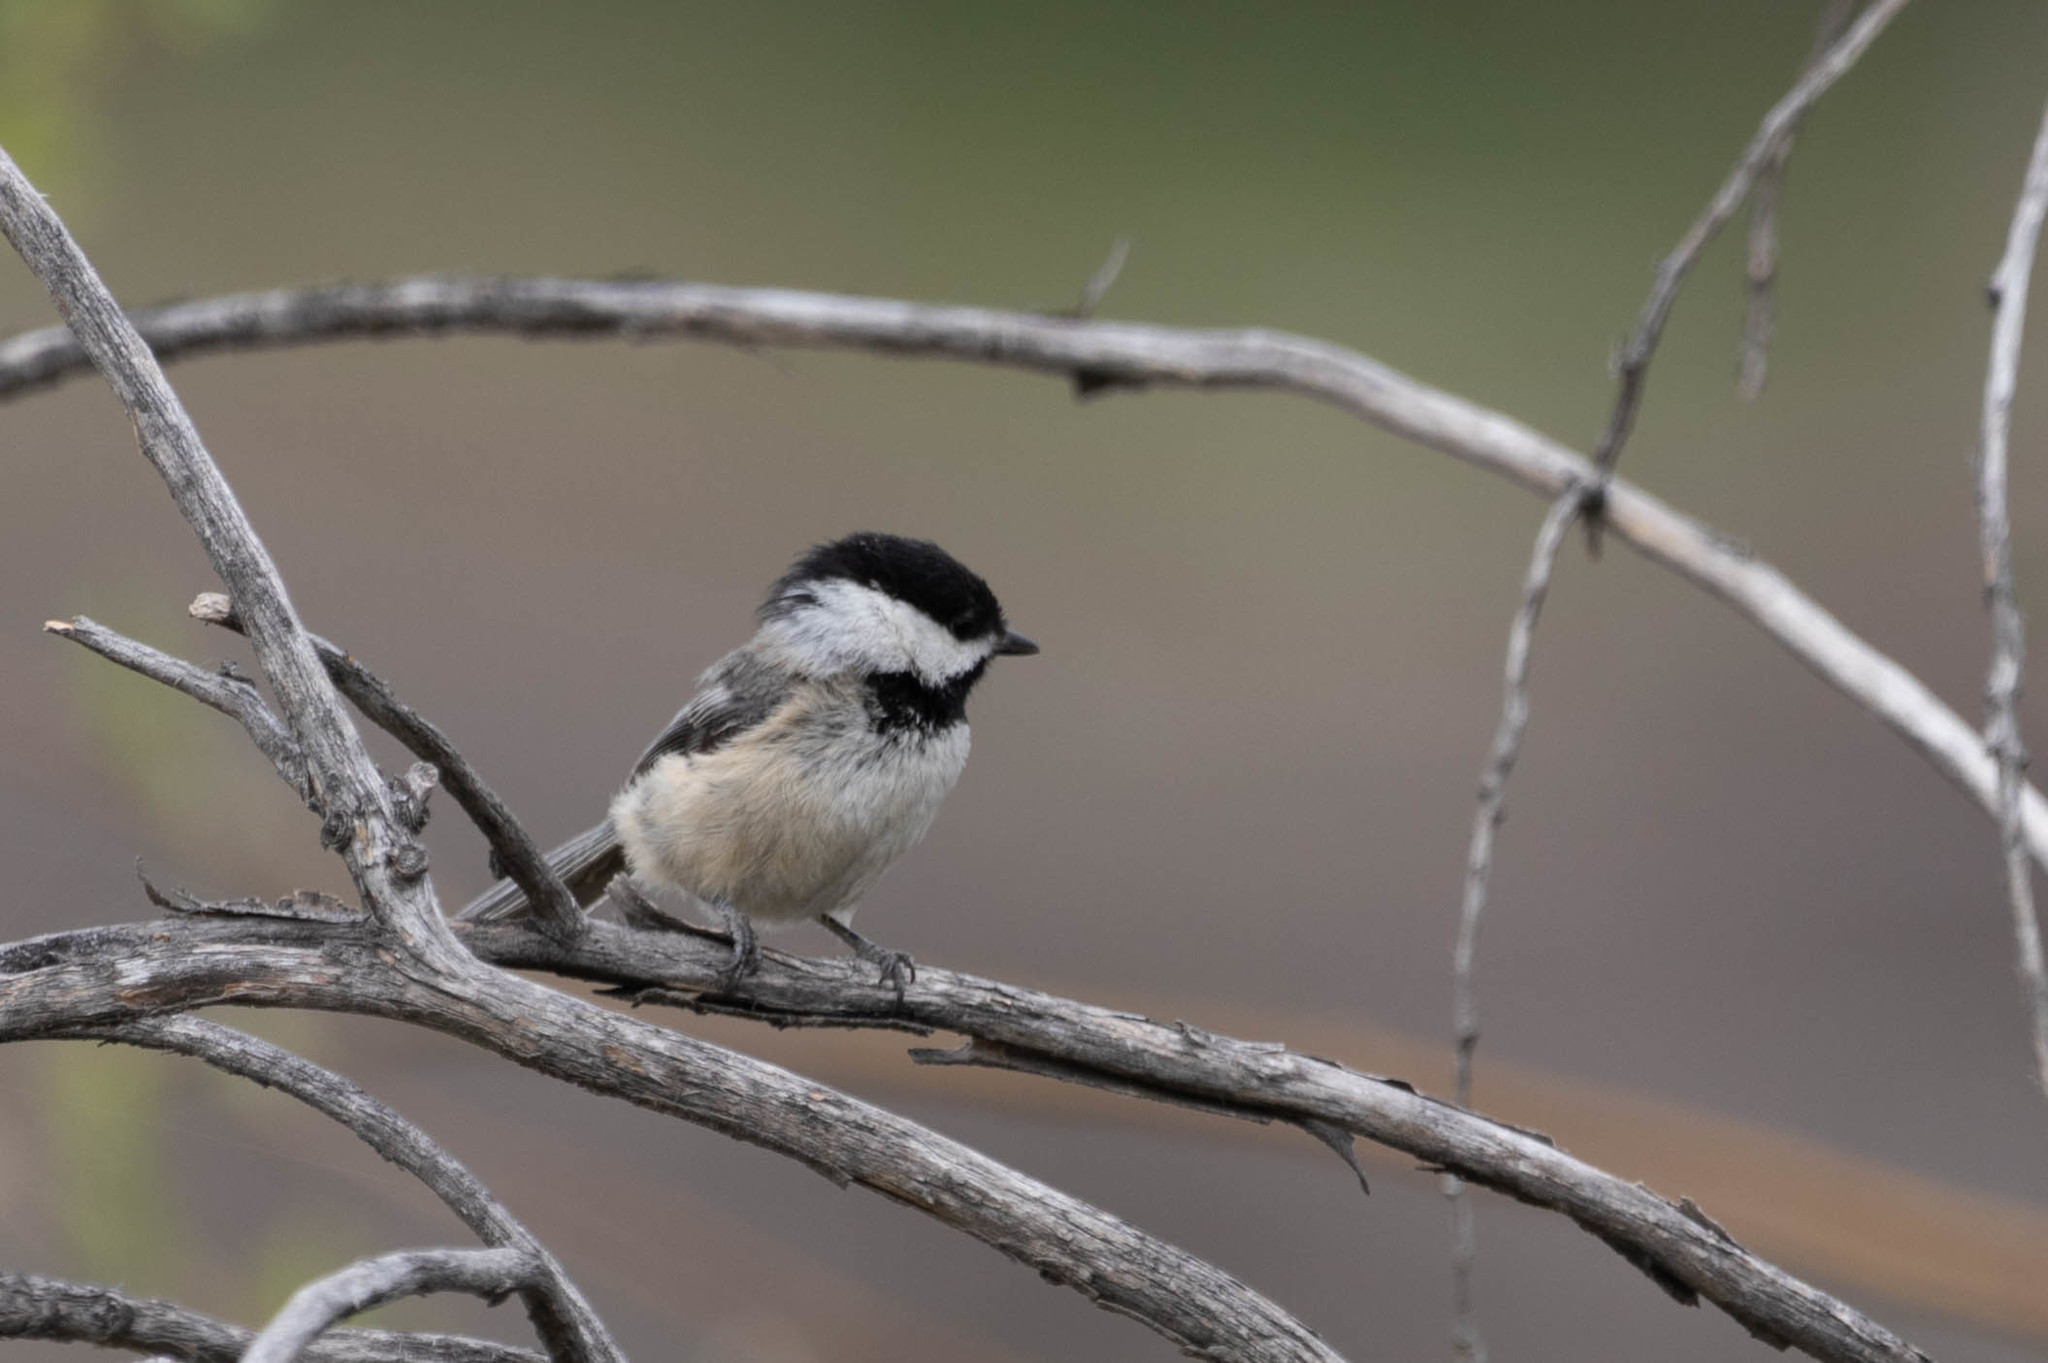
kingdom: Animalia
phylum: Chordata
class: Aves
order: Passeriformes
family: Paridae
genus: Poecile
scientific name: Poecile atricapillus
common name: Black-capped chickadee
